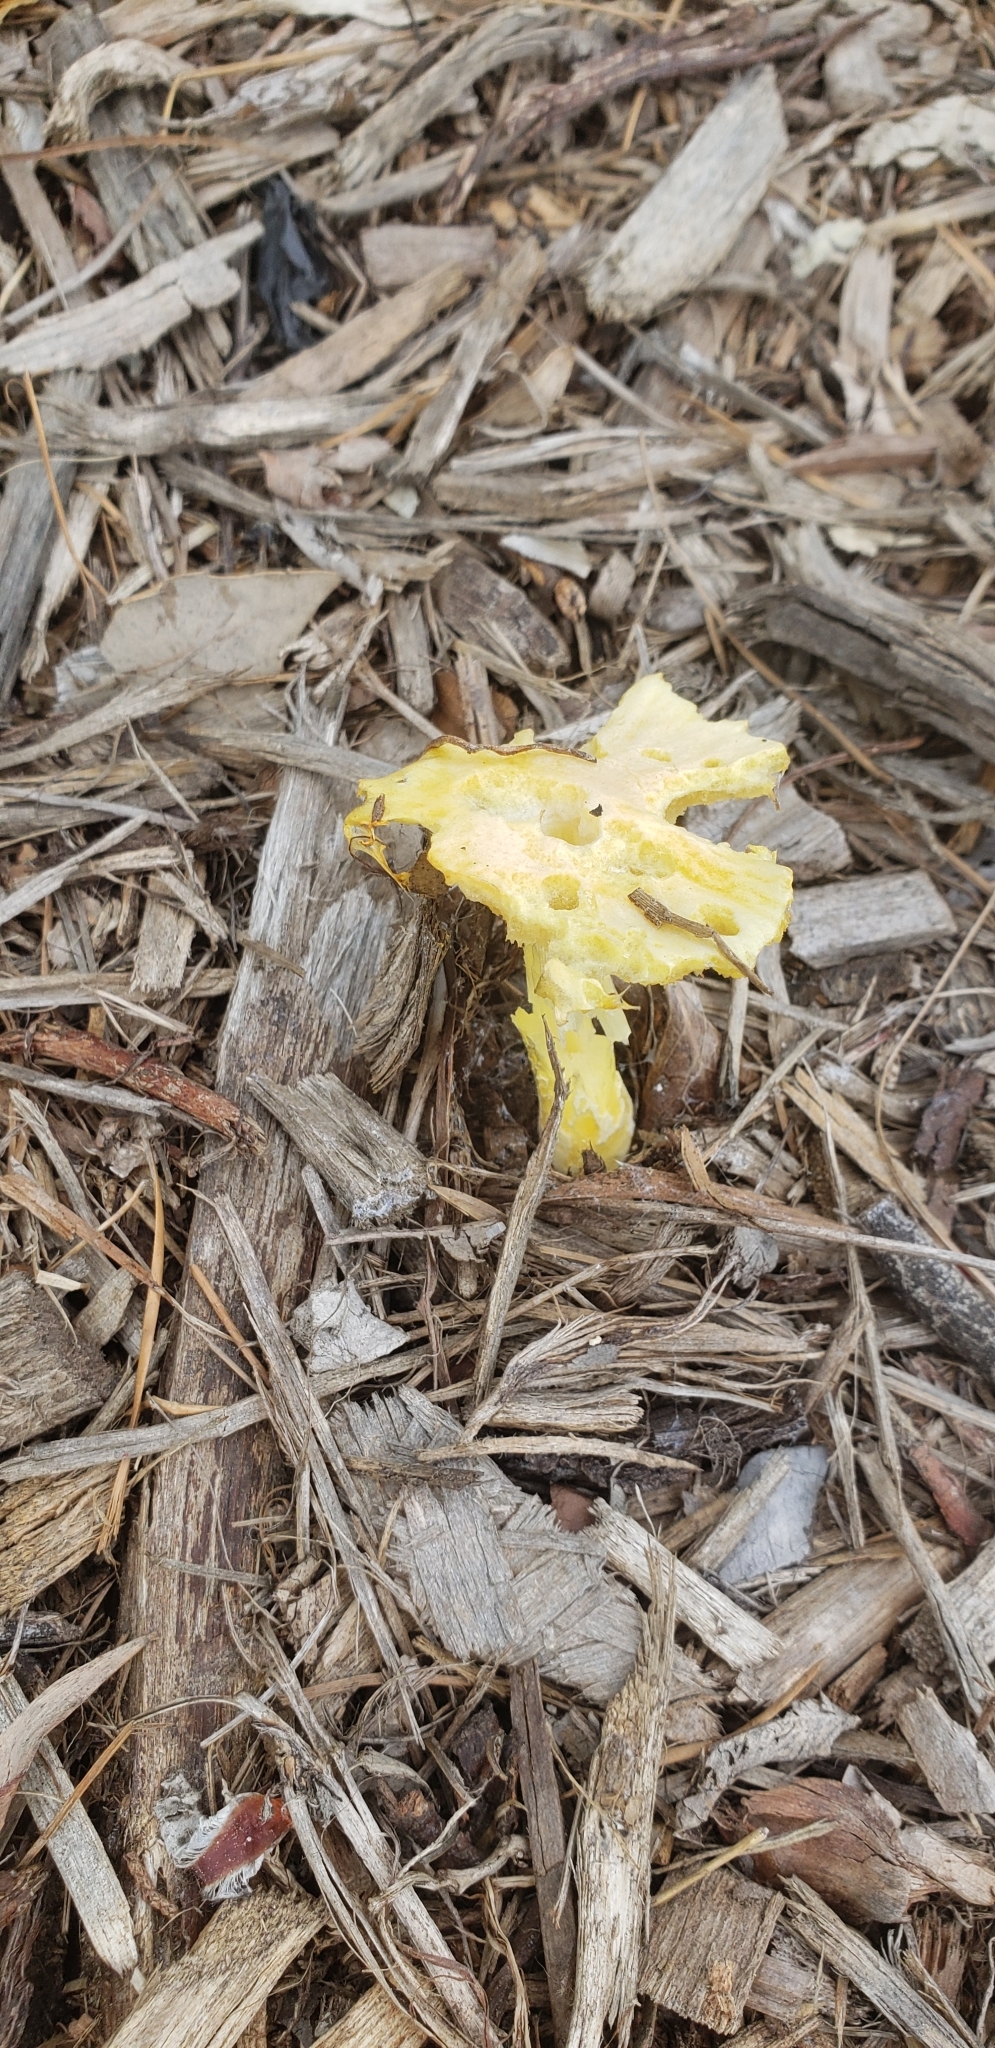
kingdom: Fungi
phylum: Basidiomycota
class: Agaricomycetes
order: Agaricales
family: Bolbitiaceae
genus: Bolbitius
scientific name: Bolbitius titubans
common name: Yellow fieldcap
